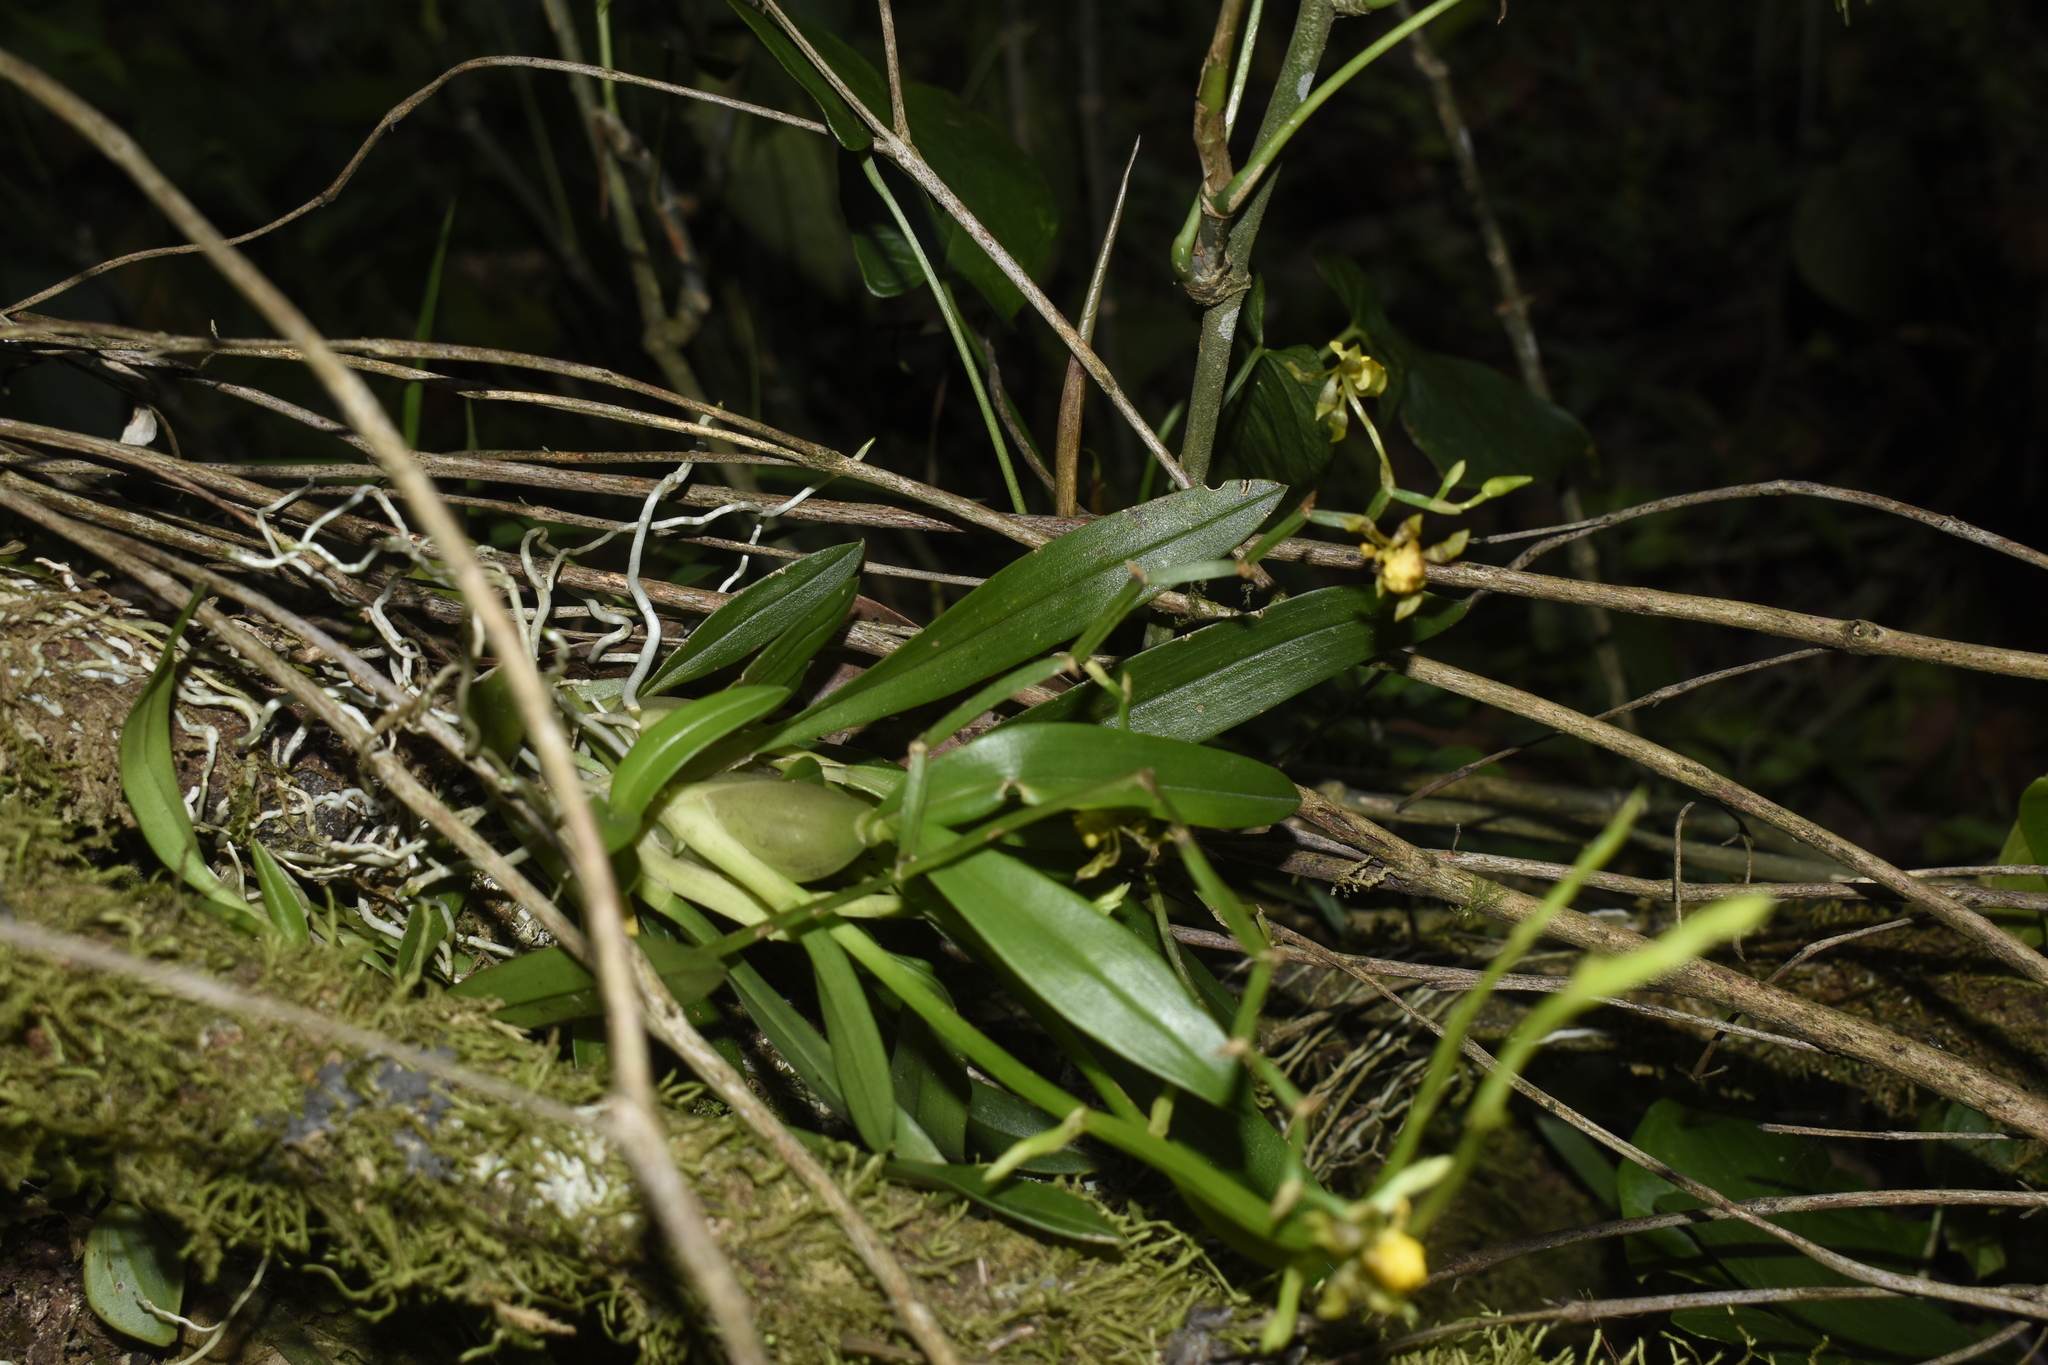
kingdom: Plantae
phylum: Tracheophyta
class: Liliopsida
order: Asparagales
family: Orchidaceae
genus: Cyrtochilum
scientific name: Cyrtochilum meirax
